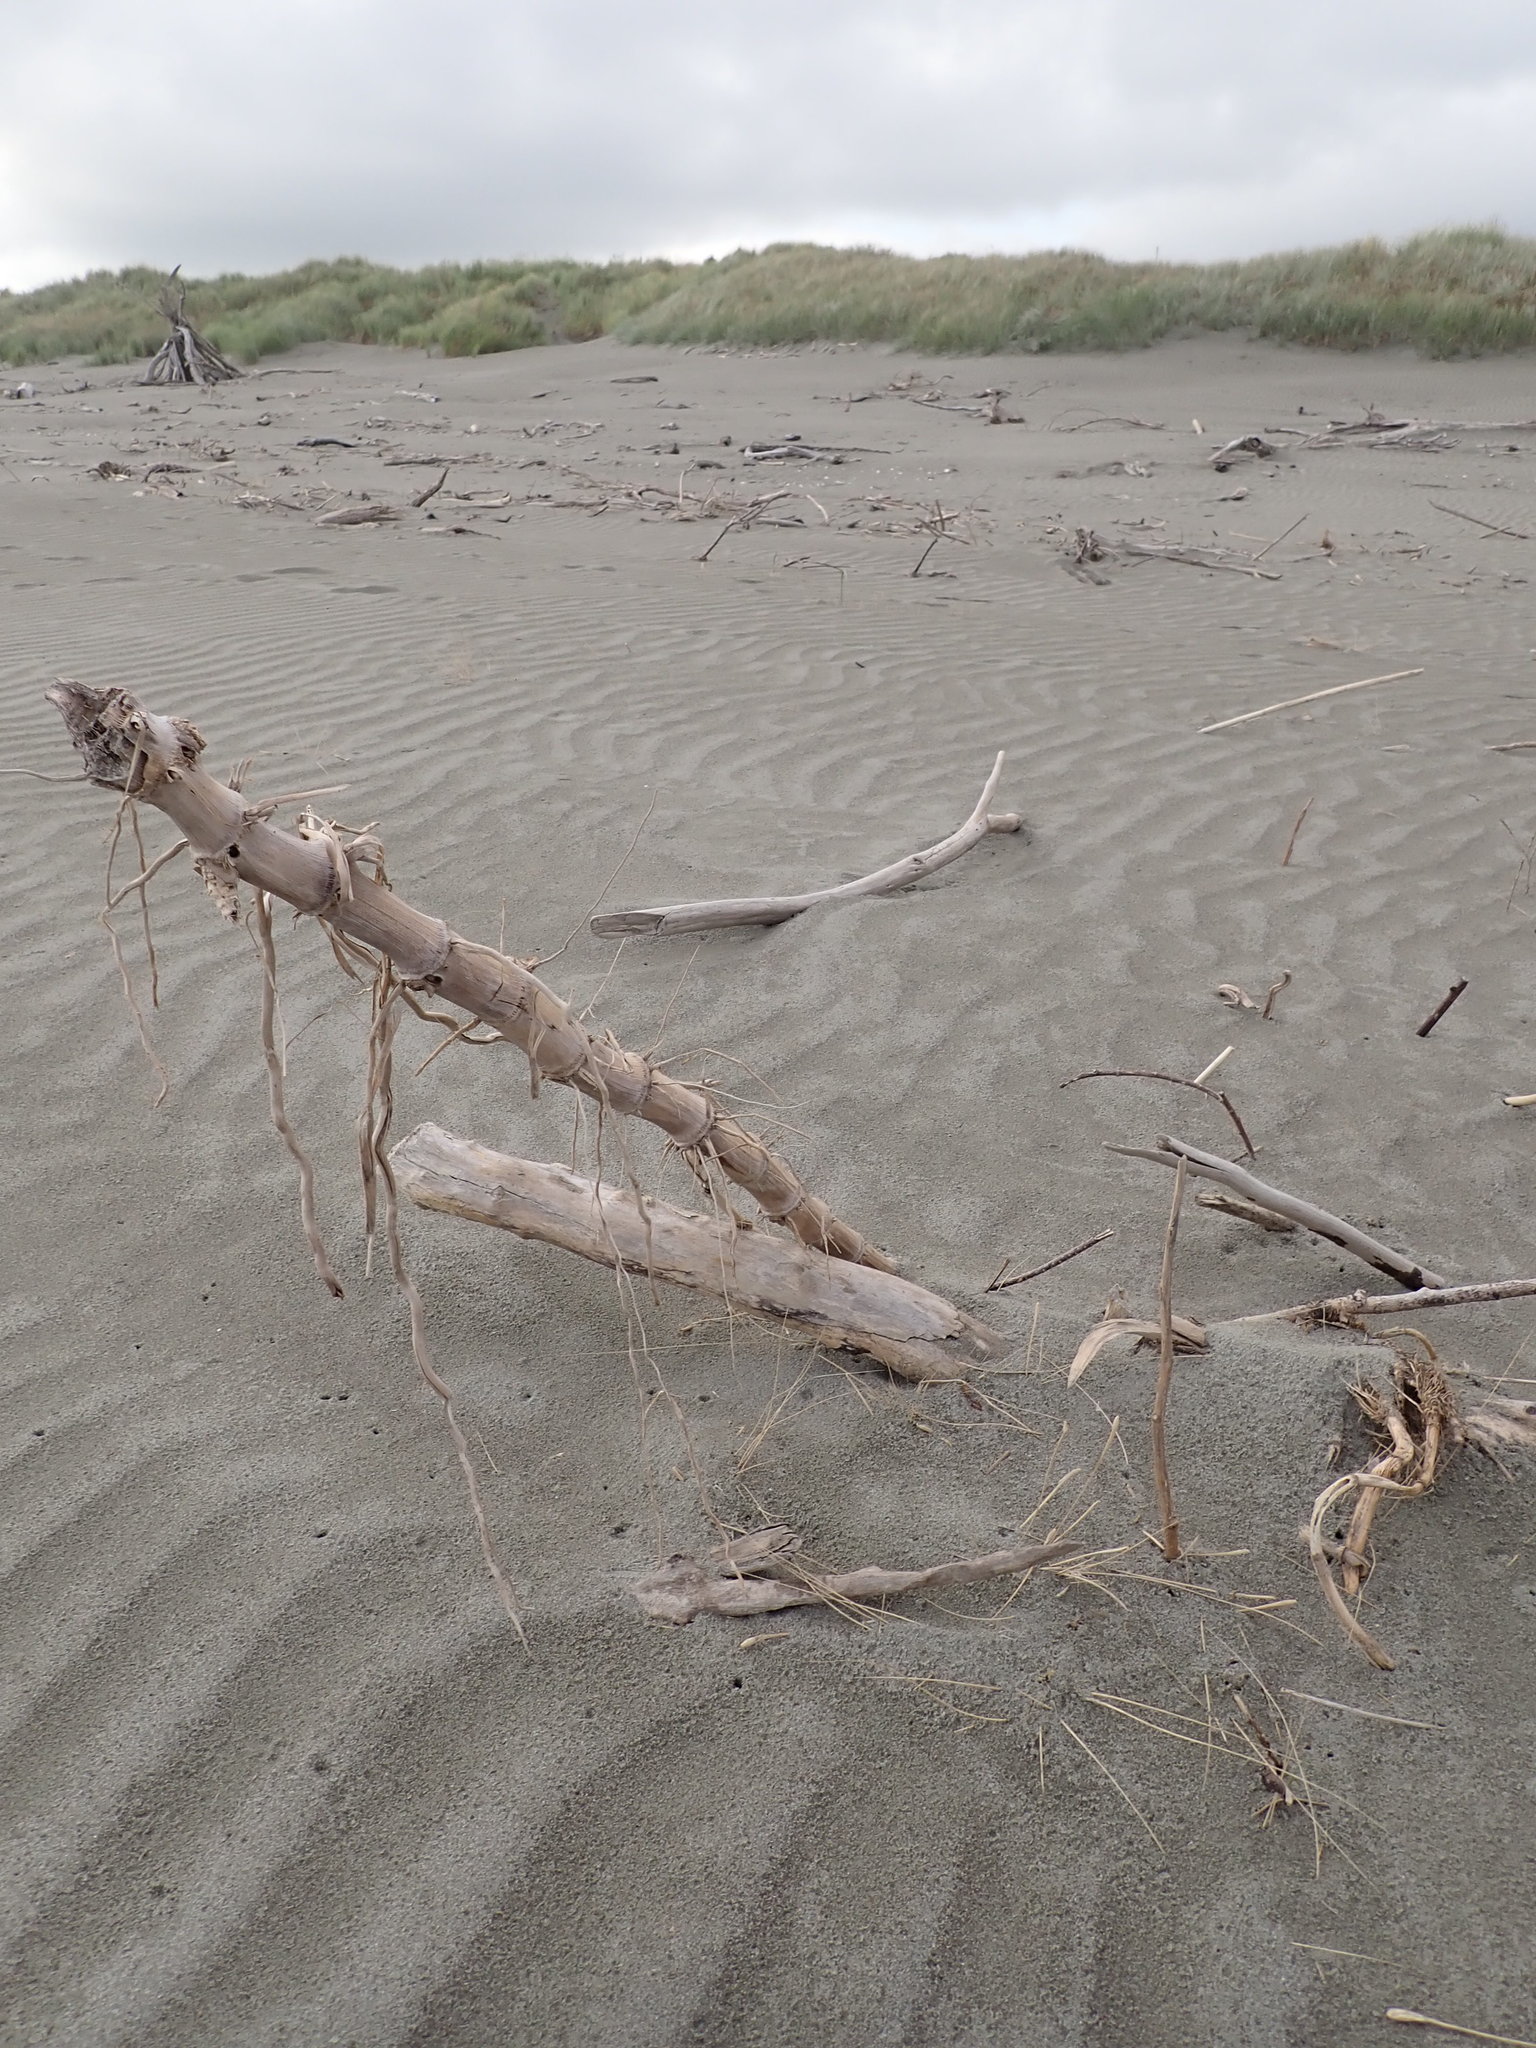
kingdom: Plantae
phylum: Tracheophyta
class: Liliopsida
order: Poales
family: Poaceae
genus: Phragmites
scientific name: Phragmites karka
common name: Tropical reed
